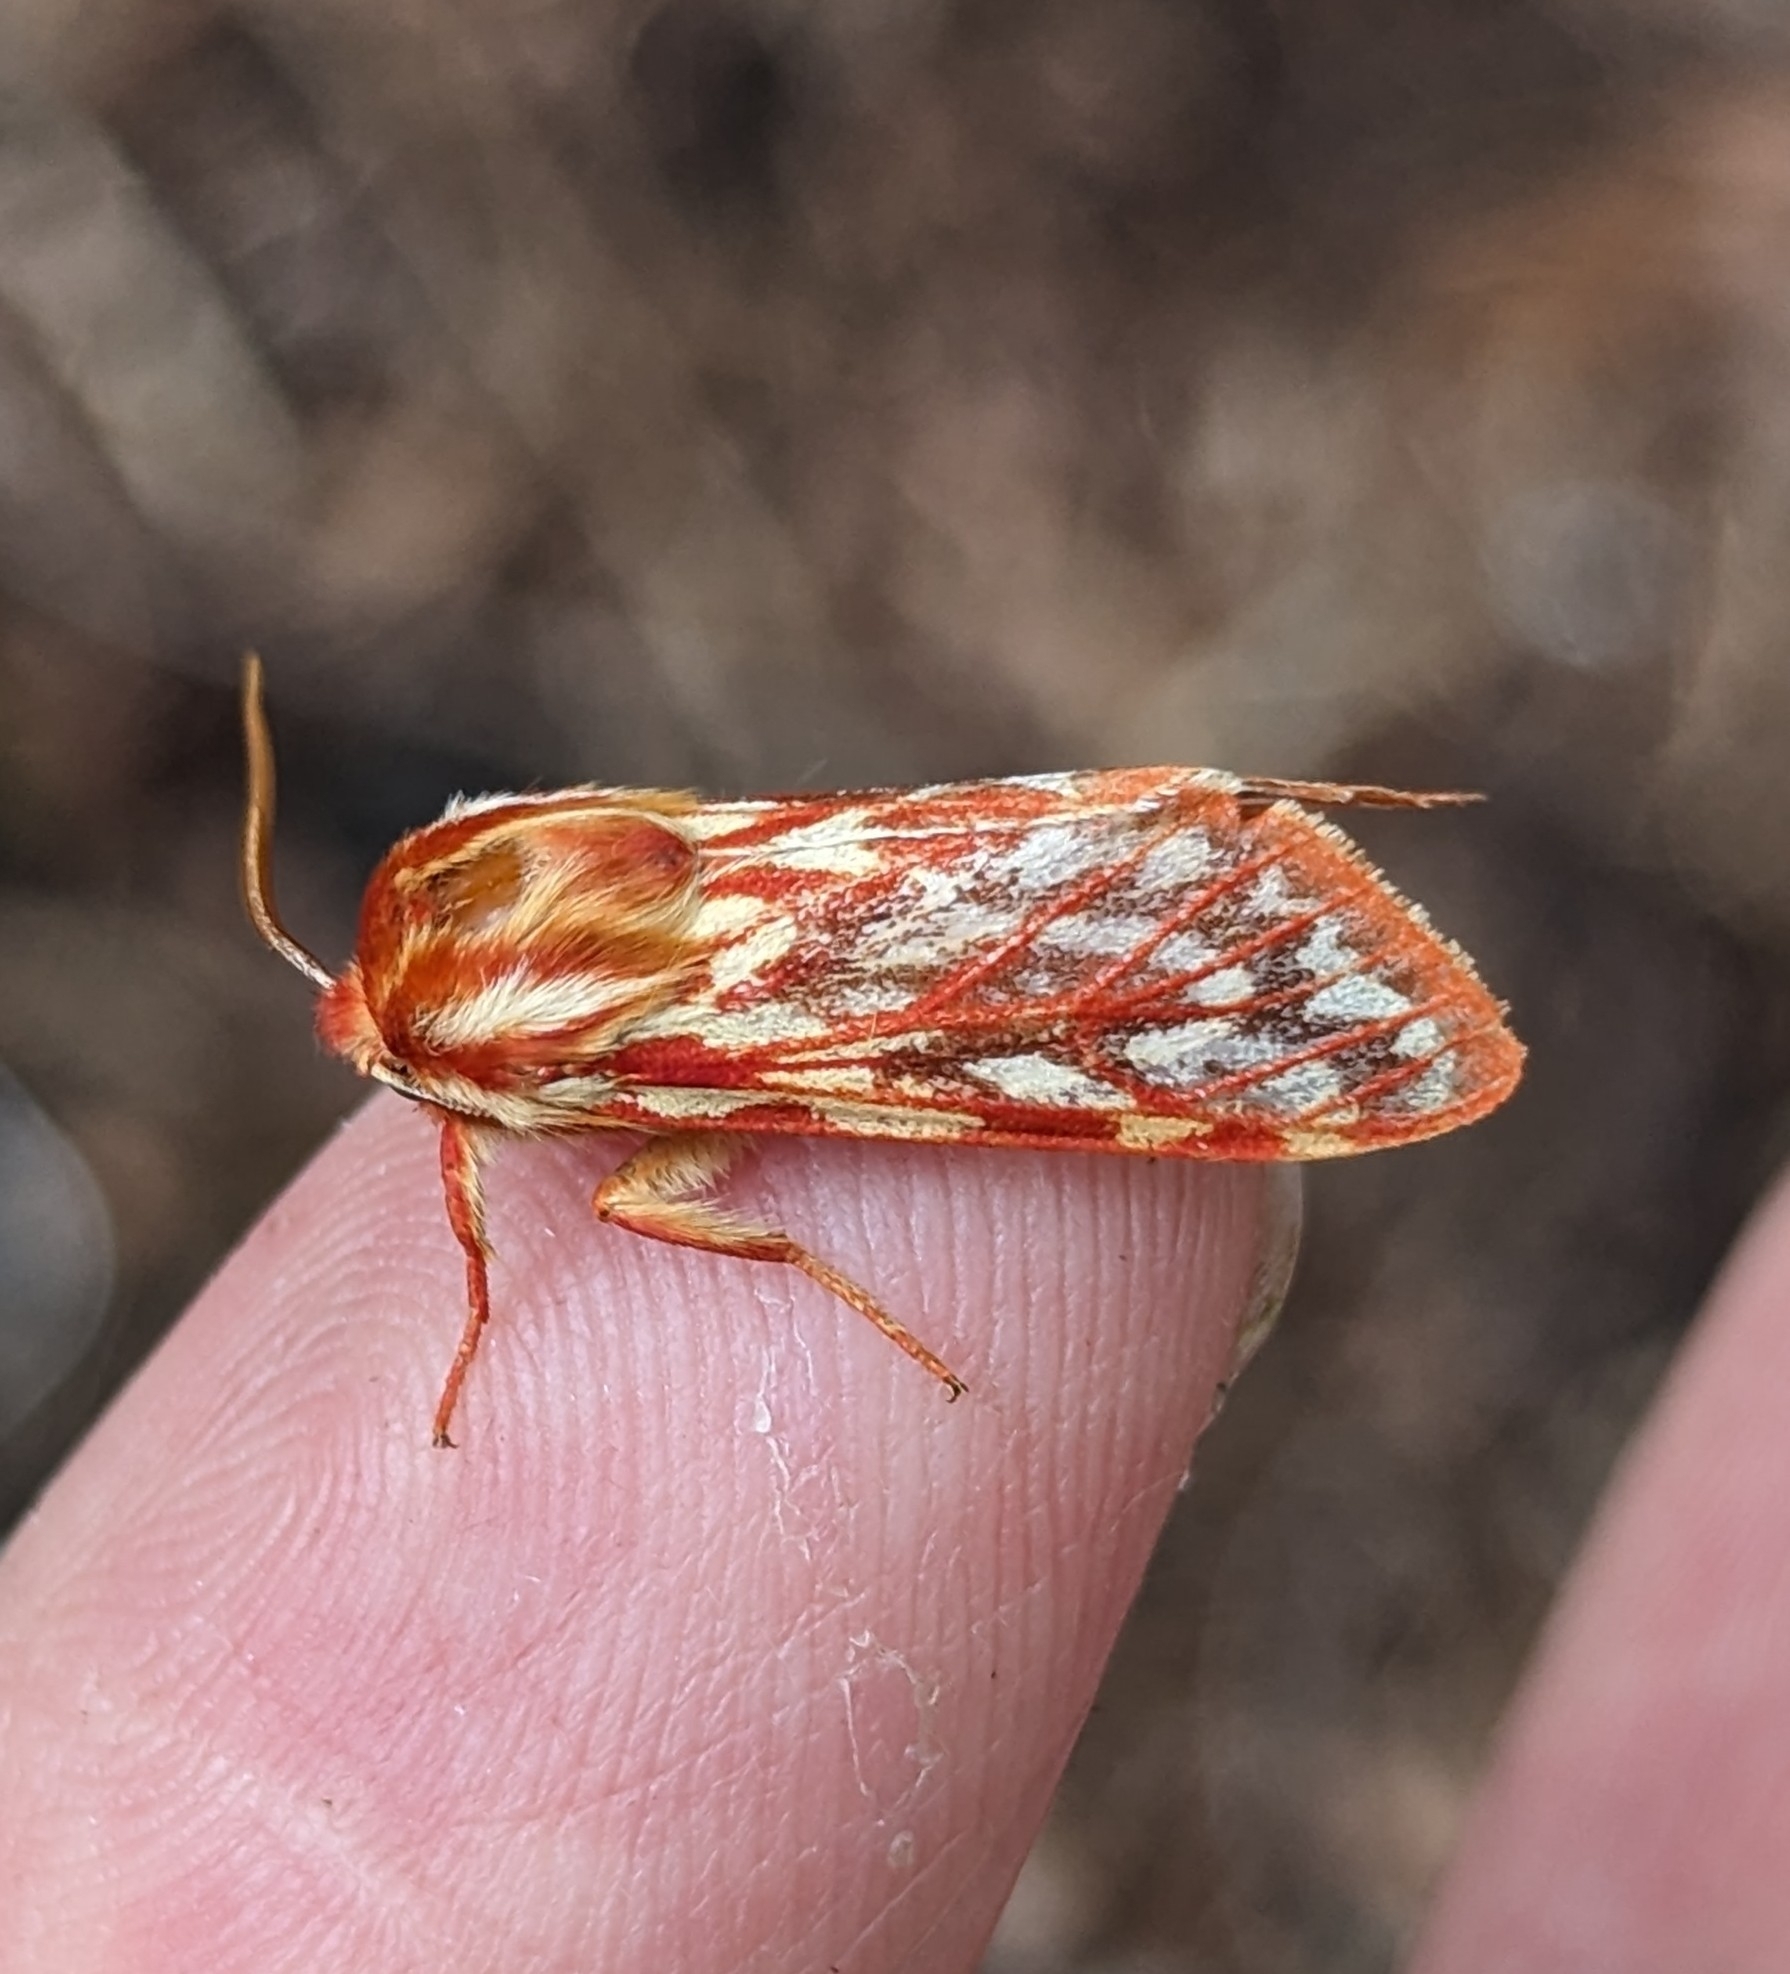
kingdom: Animalia
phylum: Arthropoda
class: Insecta
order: Lepidoptera
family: Erebidae
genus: Lophocampa
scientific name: Lophocampa roseata
